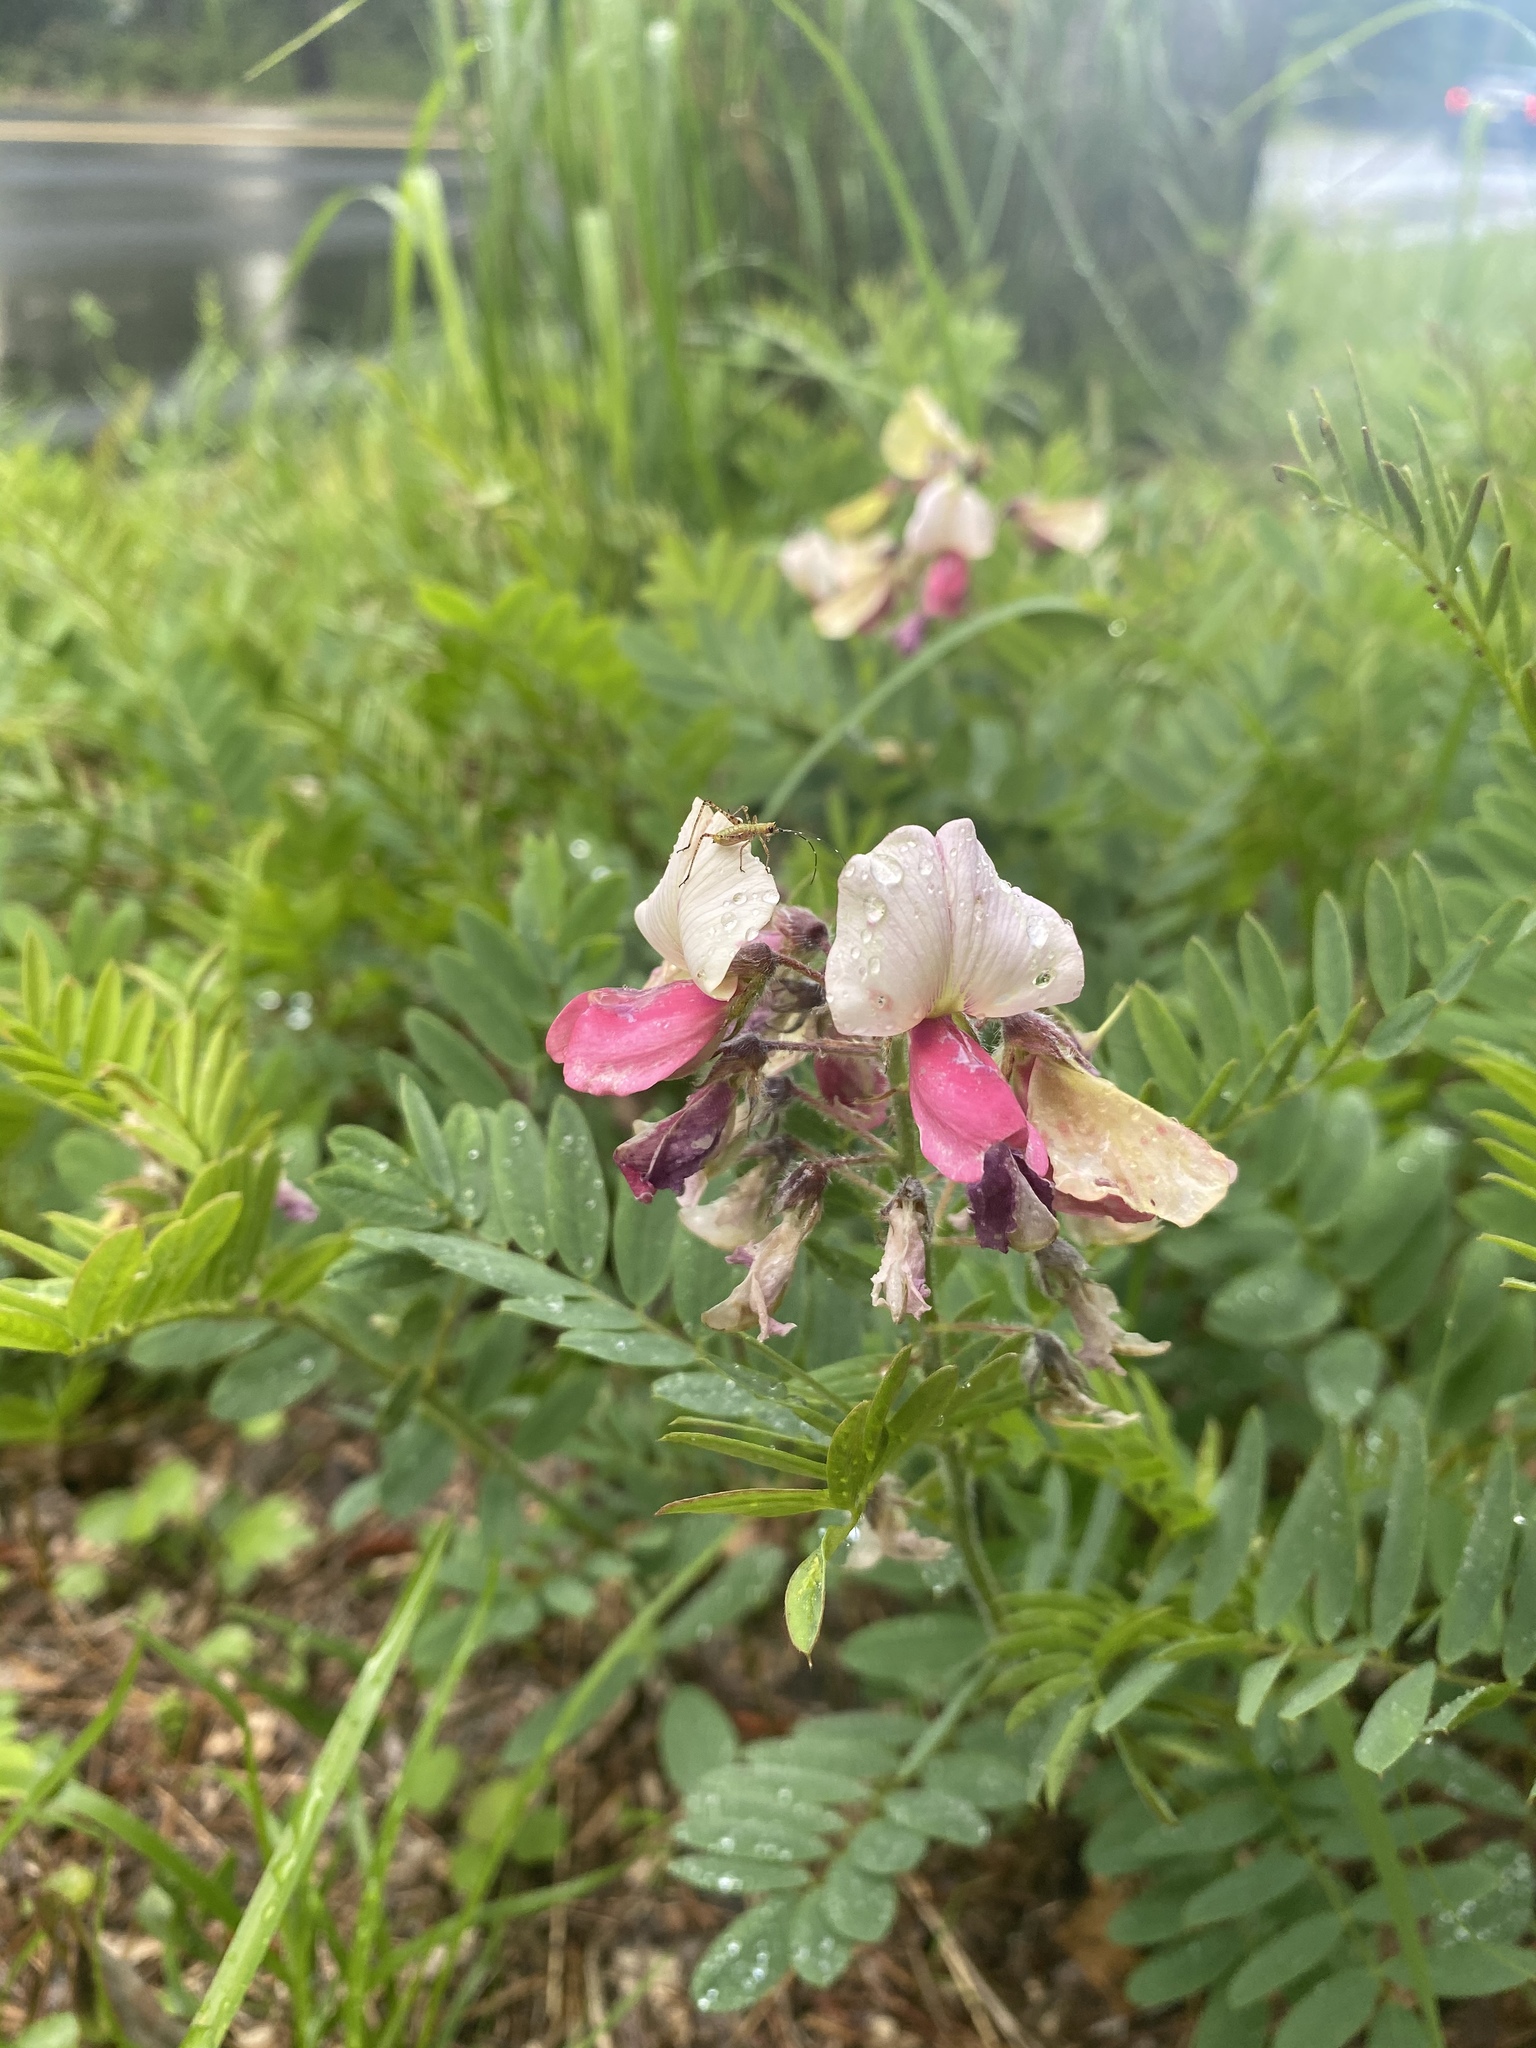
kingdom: Plantae
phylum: Tracheophyta
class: Magnoliopsida
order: Fabales
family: Fabaceae
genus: Tephrosia
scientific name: Tephrosia virginiana
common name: Rabbit-pea
